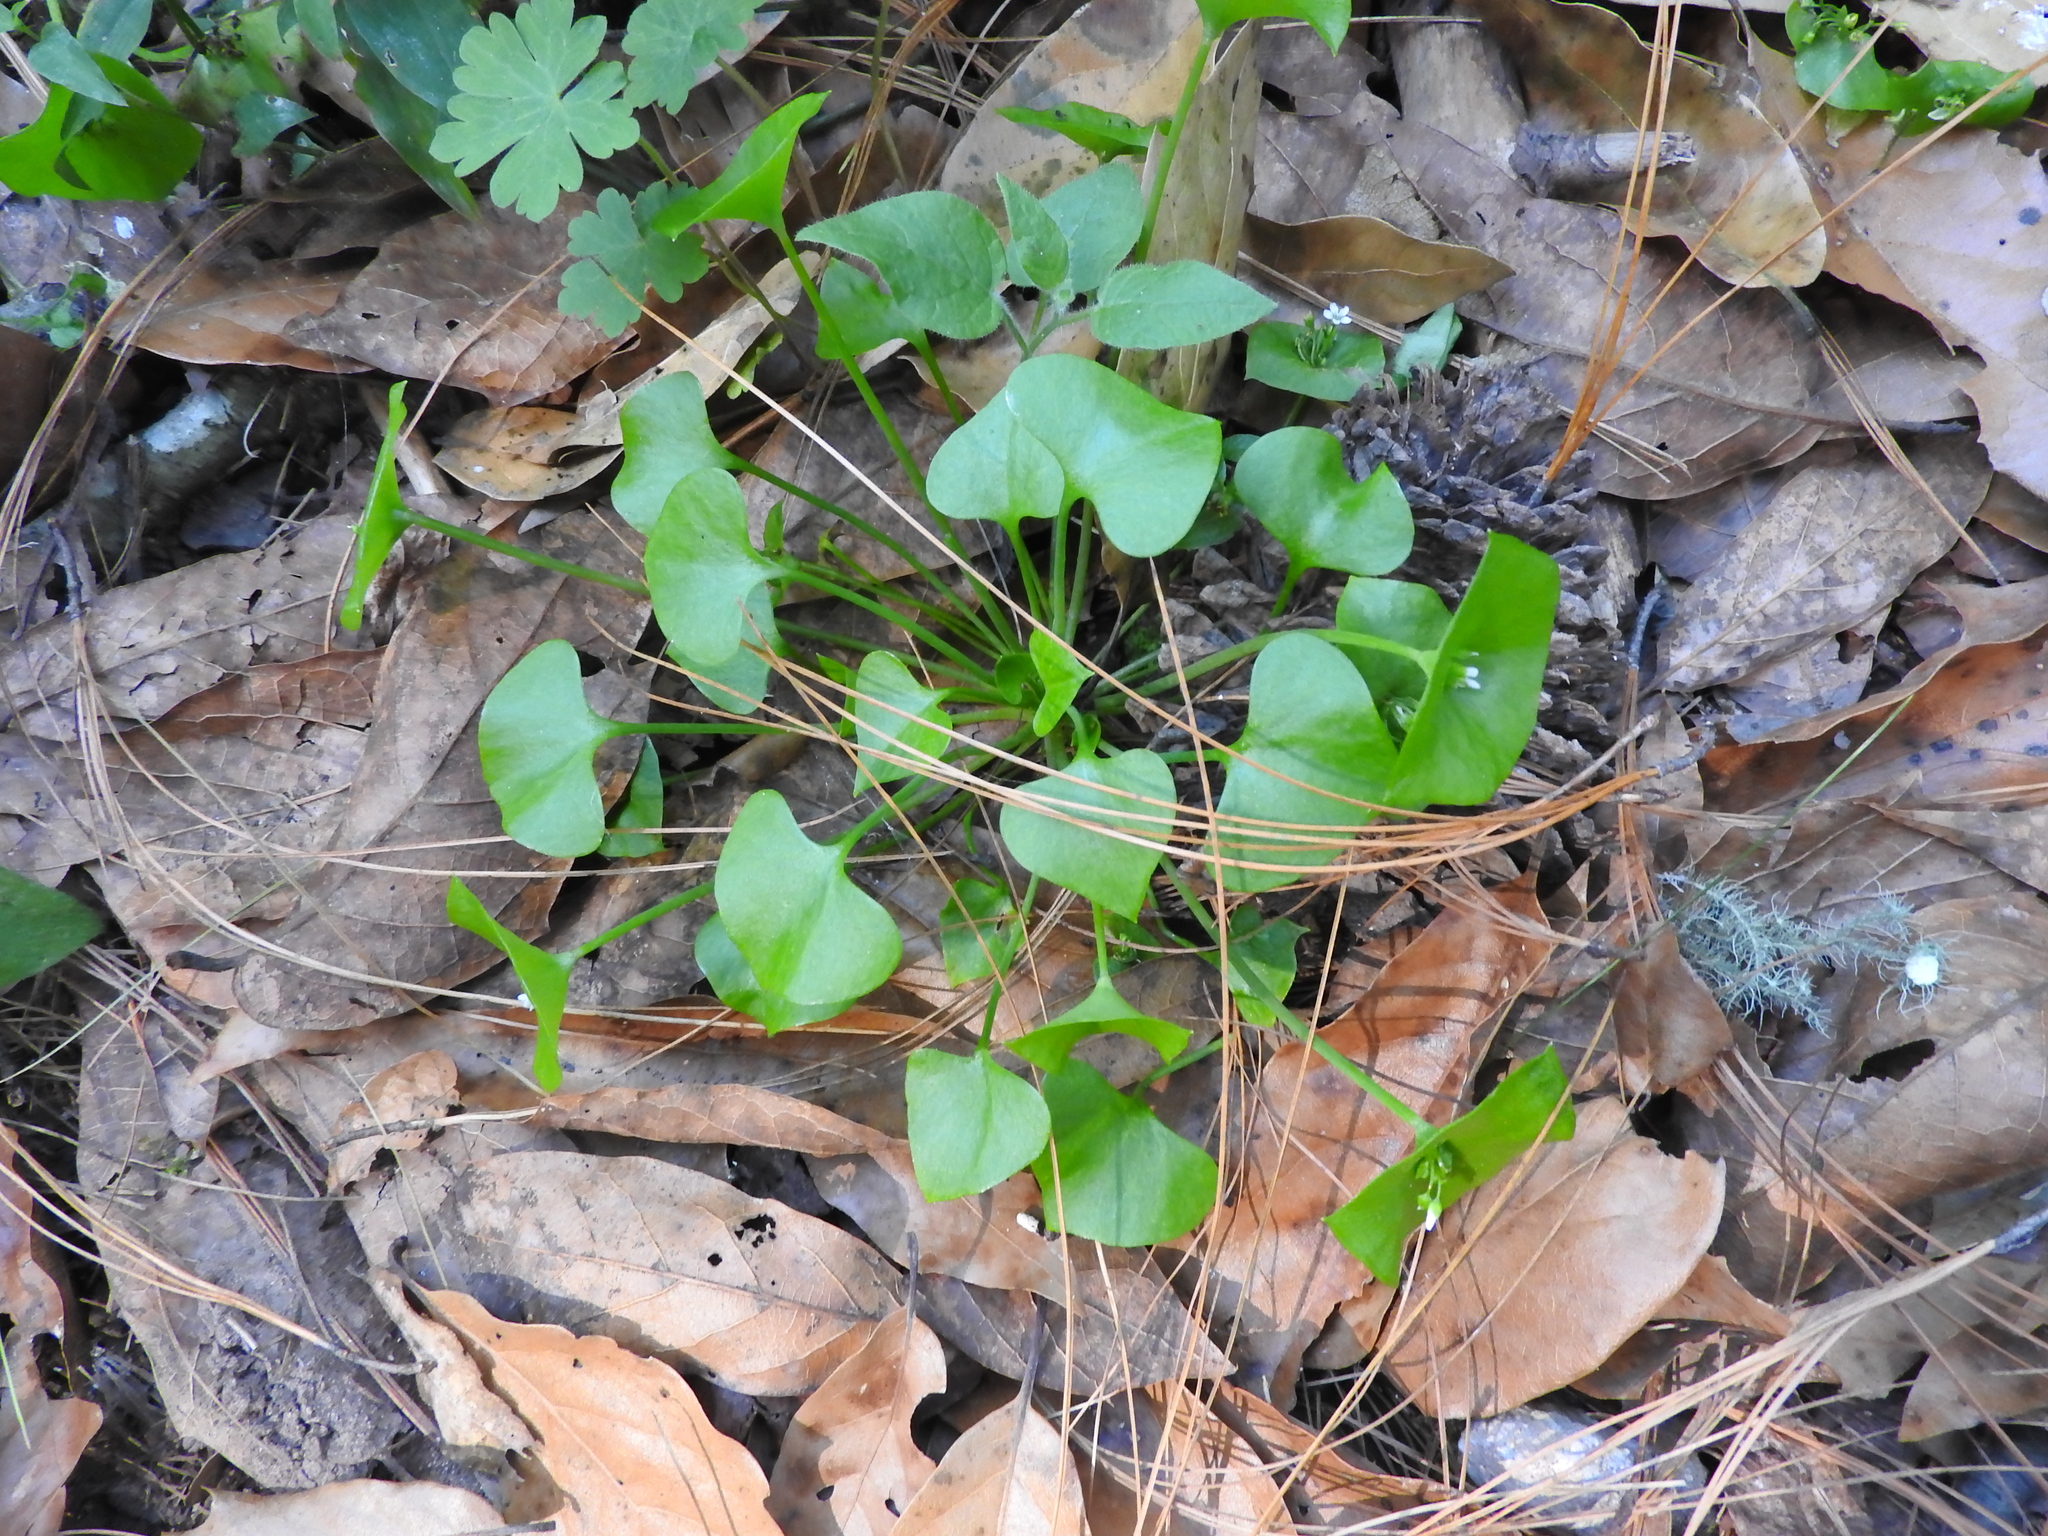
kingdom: Plantae
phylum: Tracheophyta
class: Magnoliopsida
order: Caryophyllales
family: Montiaceae
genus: Claytonia
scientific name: Claytonia perfoliata
